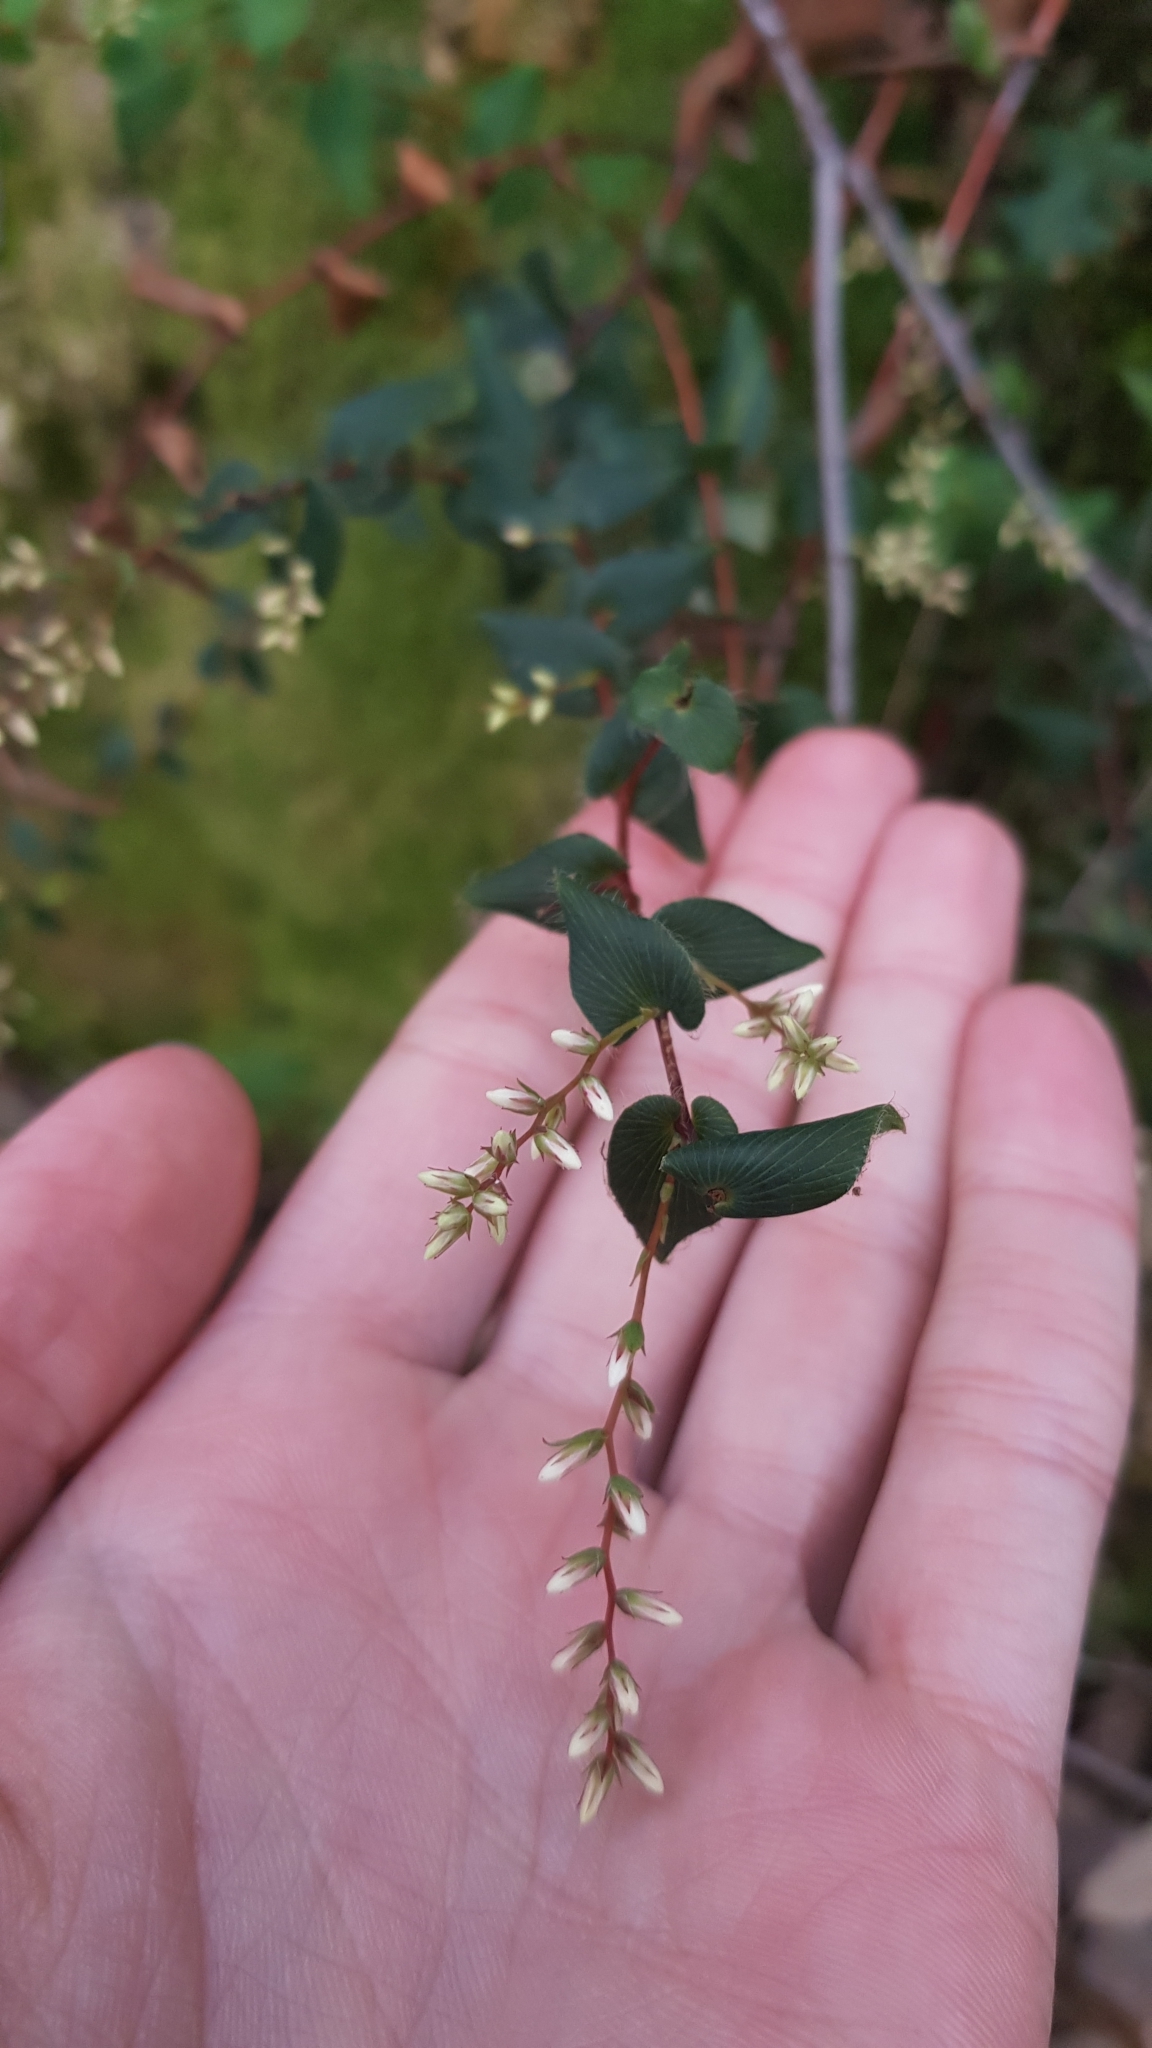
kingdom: Plantae
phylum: Tracheophyta
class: Magnoliopsida
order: Ericales
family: Ericaceae
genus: Leucopogon
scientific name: Leucopogon amplexicaulis
